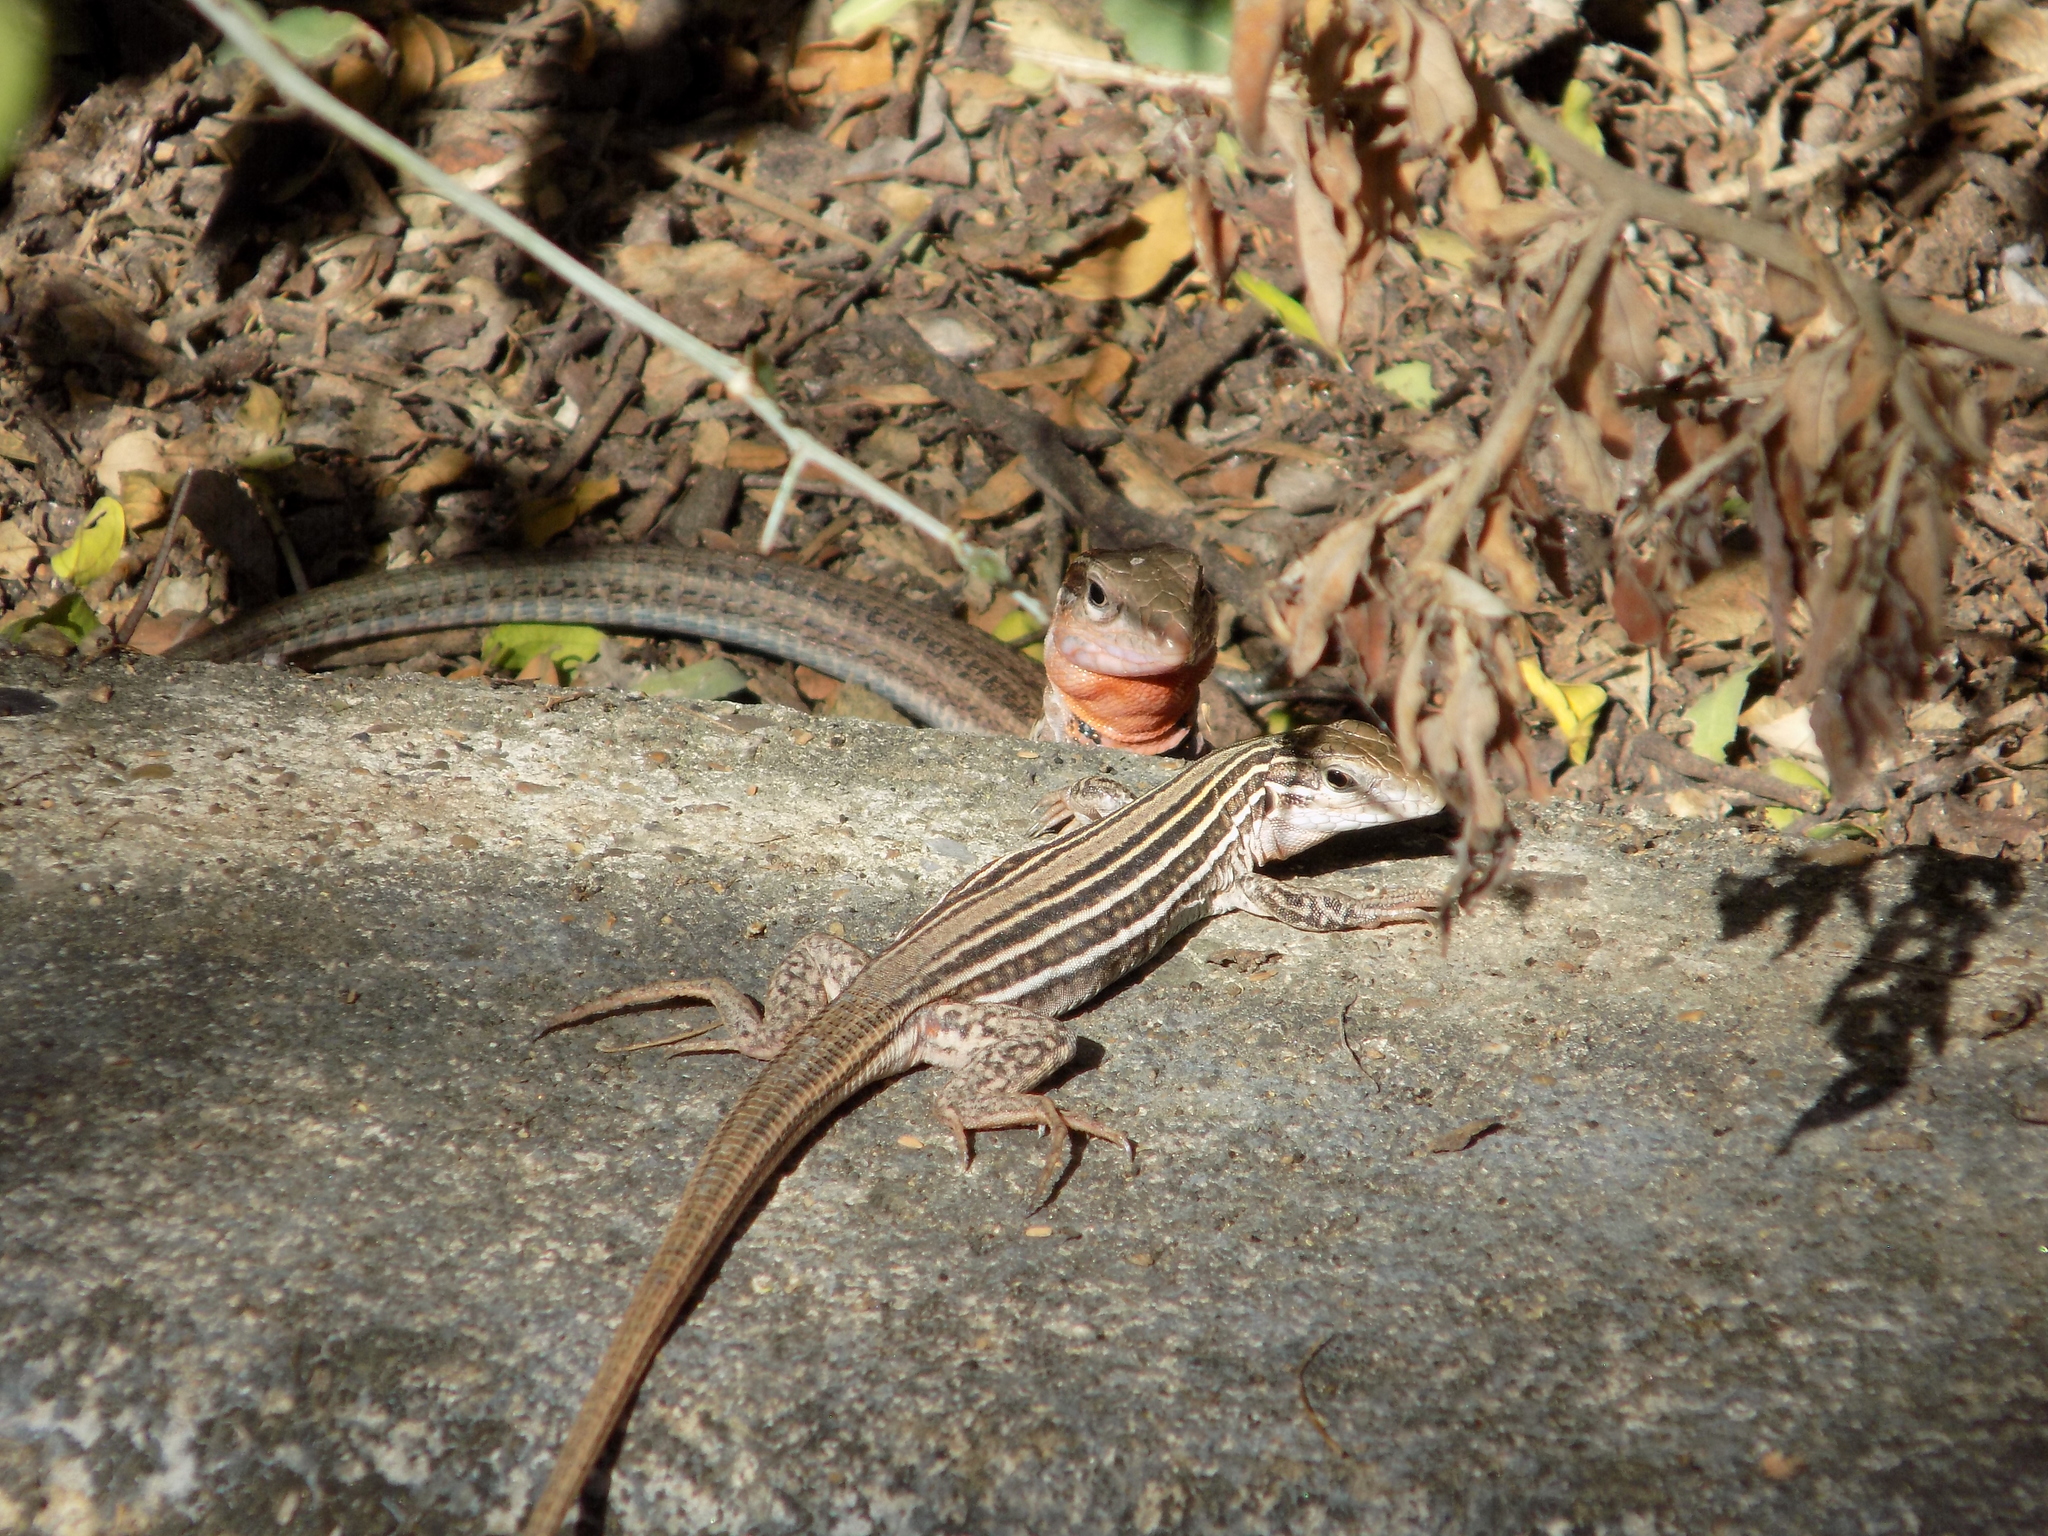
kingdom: Animalia
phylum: Chordata
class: Squamata
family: Teiidae
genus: Aspidoscelis
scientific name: Aspidoscelis gularis
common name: Eastern spotted whiptail
